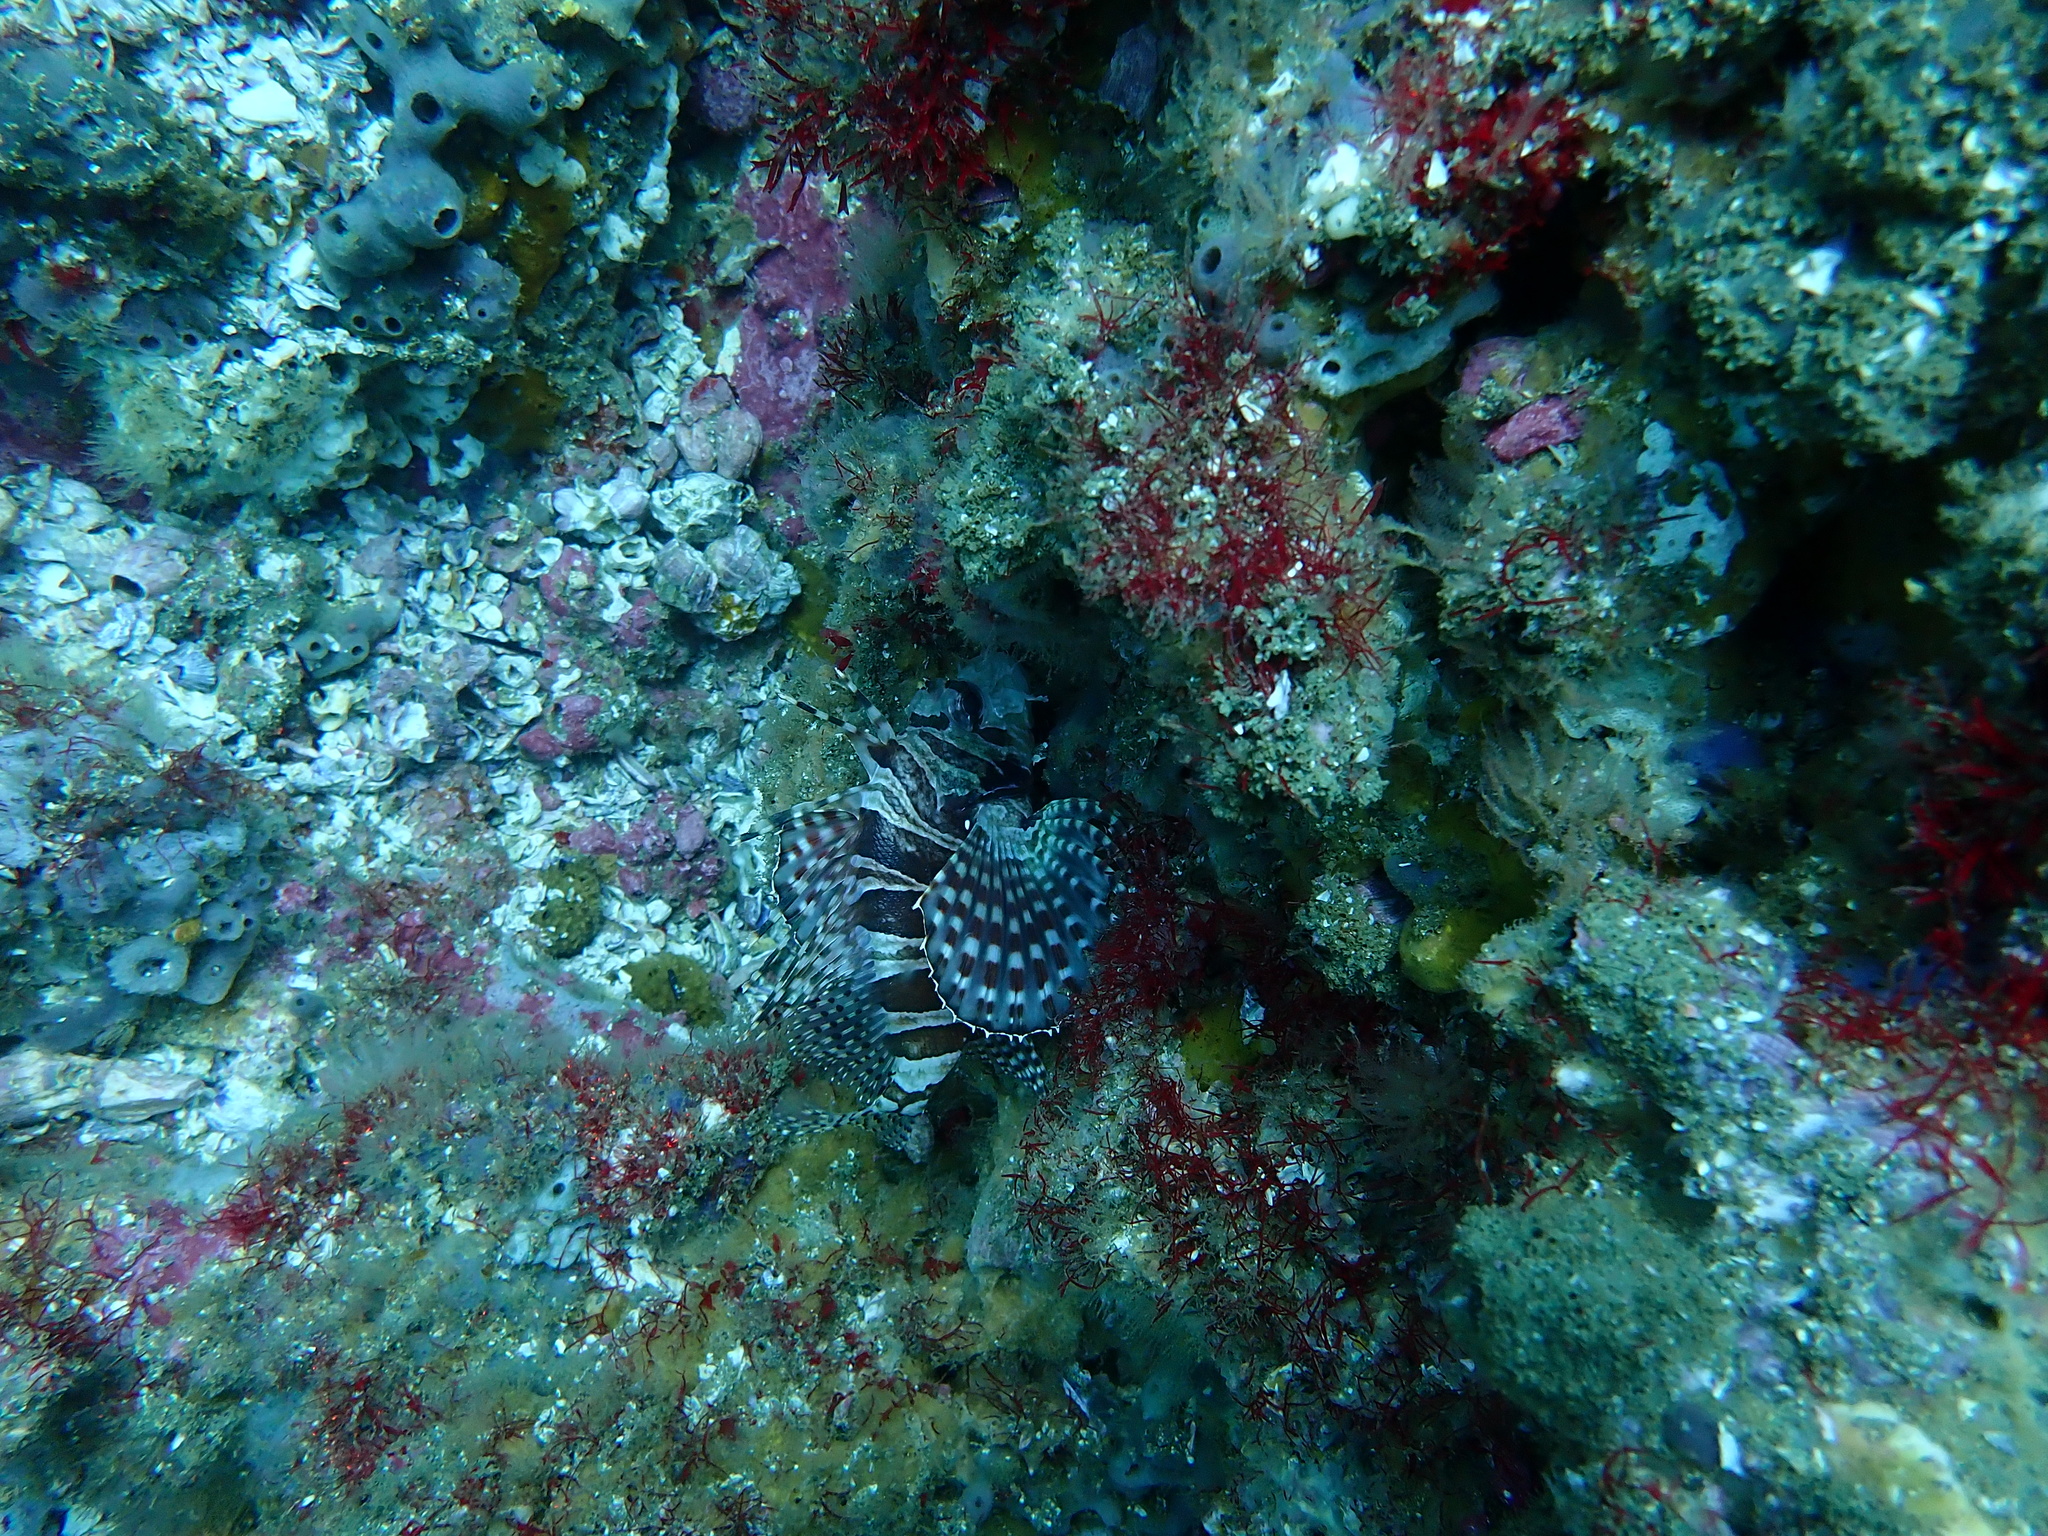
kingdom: Animalia
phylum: Chordata
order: Scorpaeniformes
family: Scorpaenidae
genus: Dendrochirus
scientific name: Dendrochirus zebra
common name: Zebra lionfish
